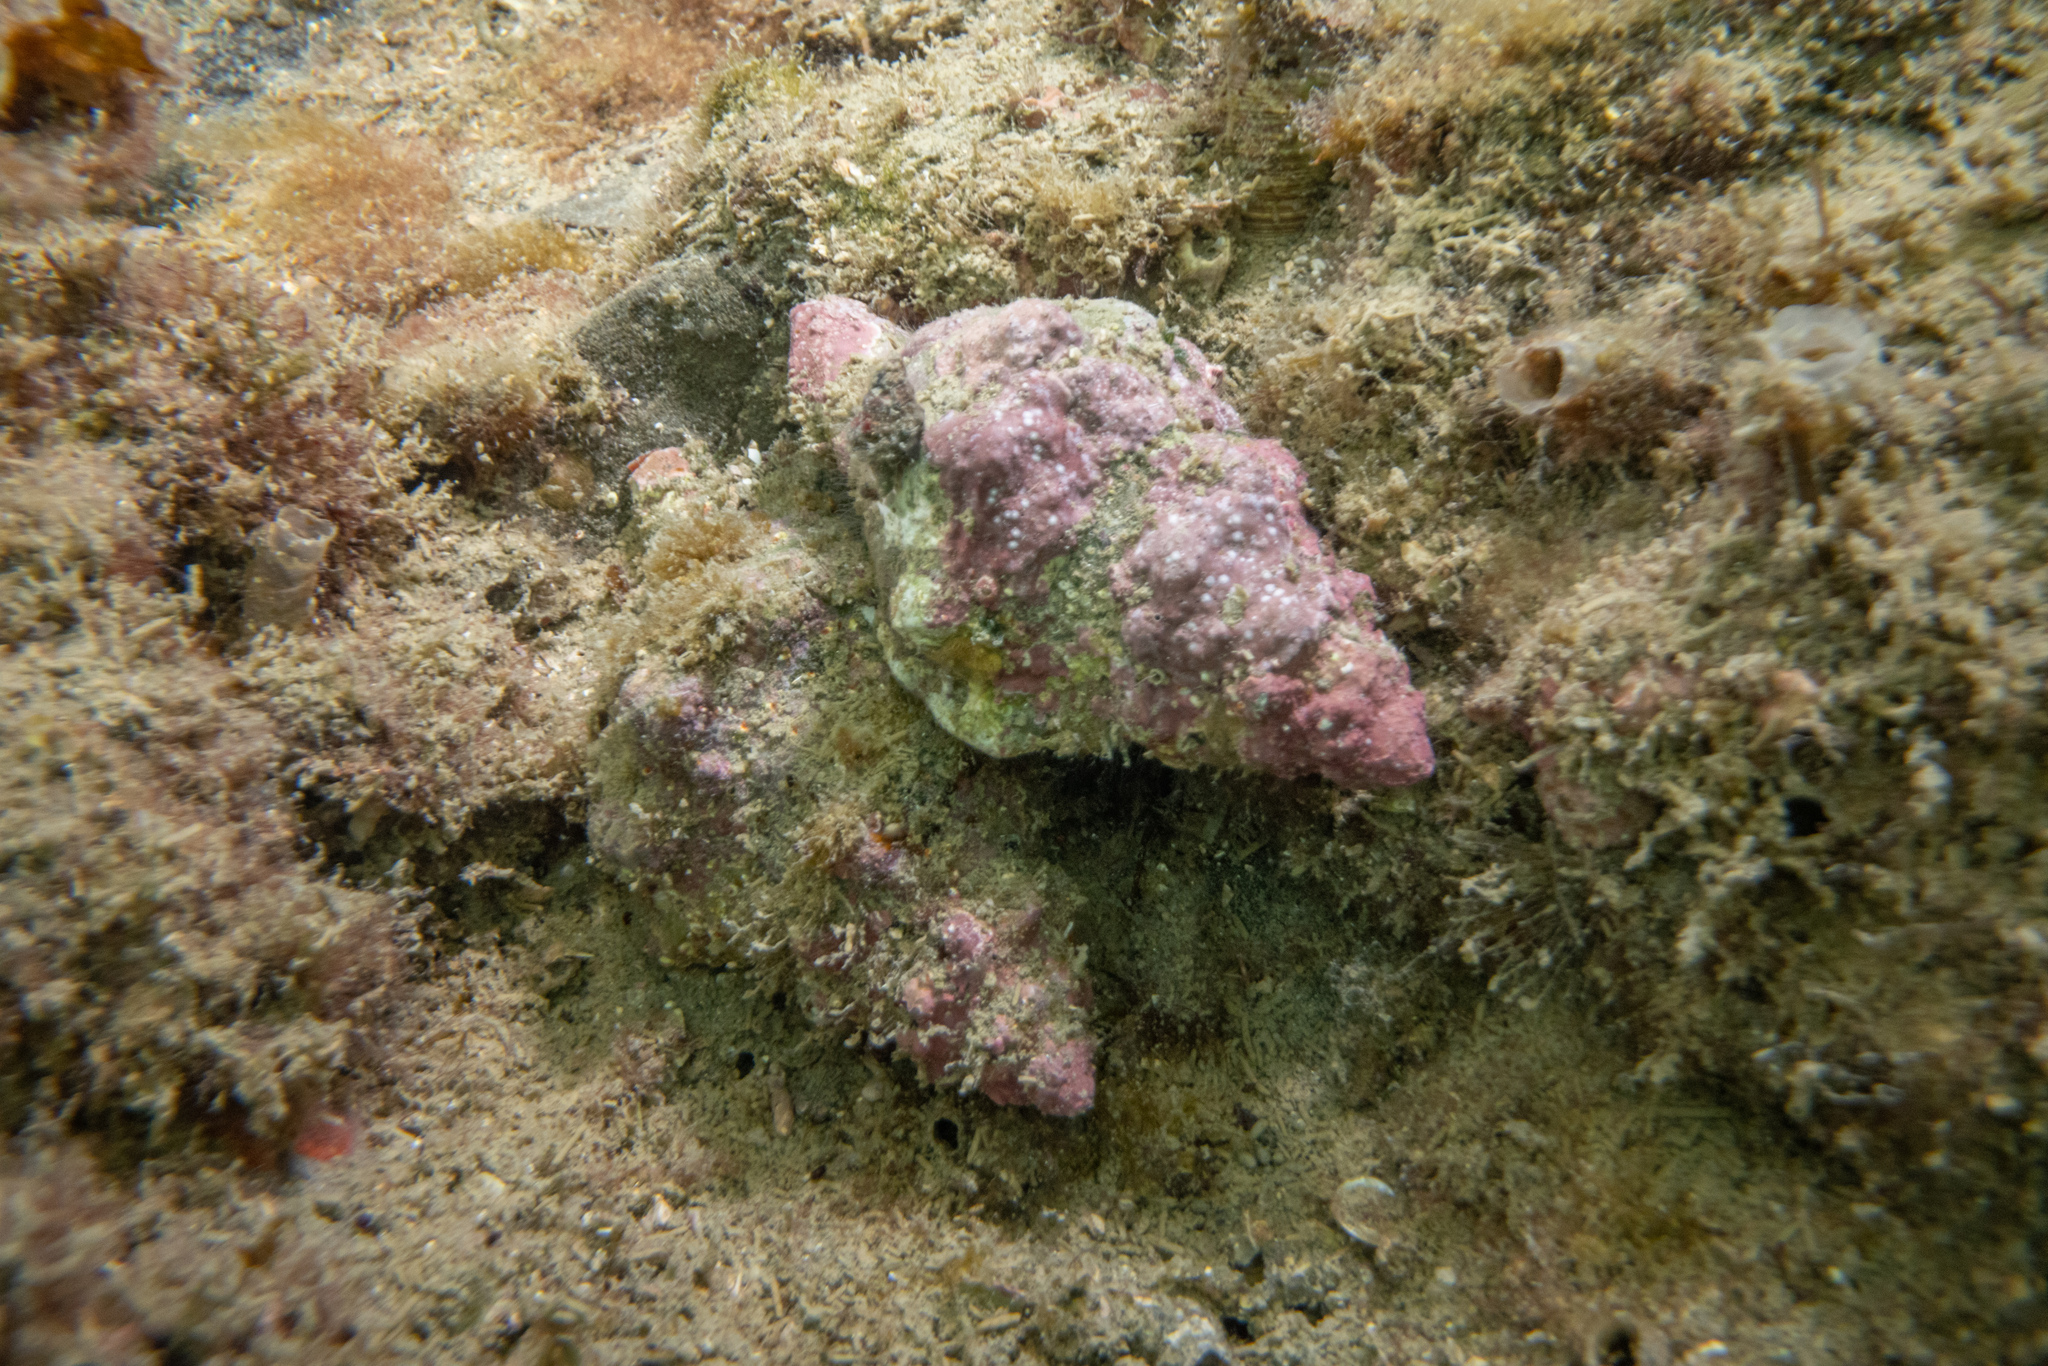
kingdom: Animalia
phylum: Mollusca
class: Gastropoda
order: Littorinimorpha
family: Cymatiidae
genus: Cabestana
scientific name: Cabestana spengleri
